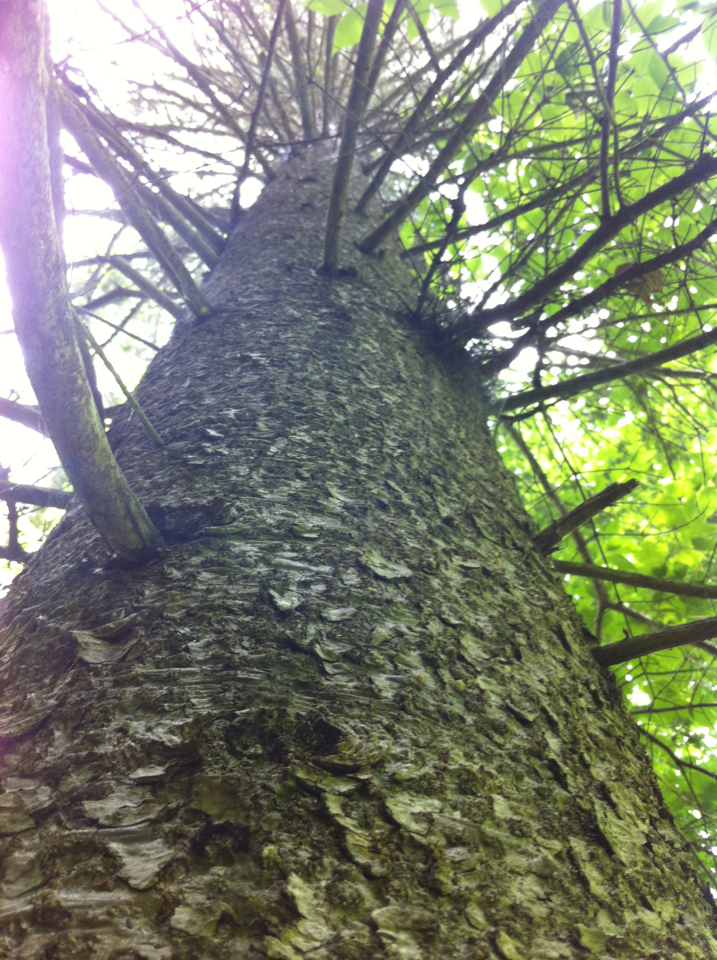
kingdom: Plantae
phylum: Tracheophyta
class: Pinopsida
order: Pinales
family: Pinaceae
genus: Abies
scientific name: Abies balsamea
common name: Balsam fir
